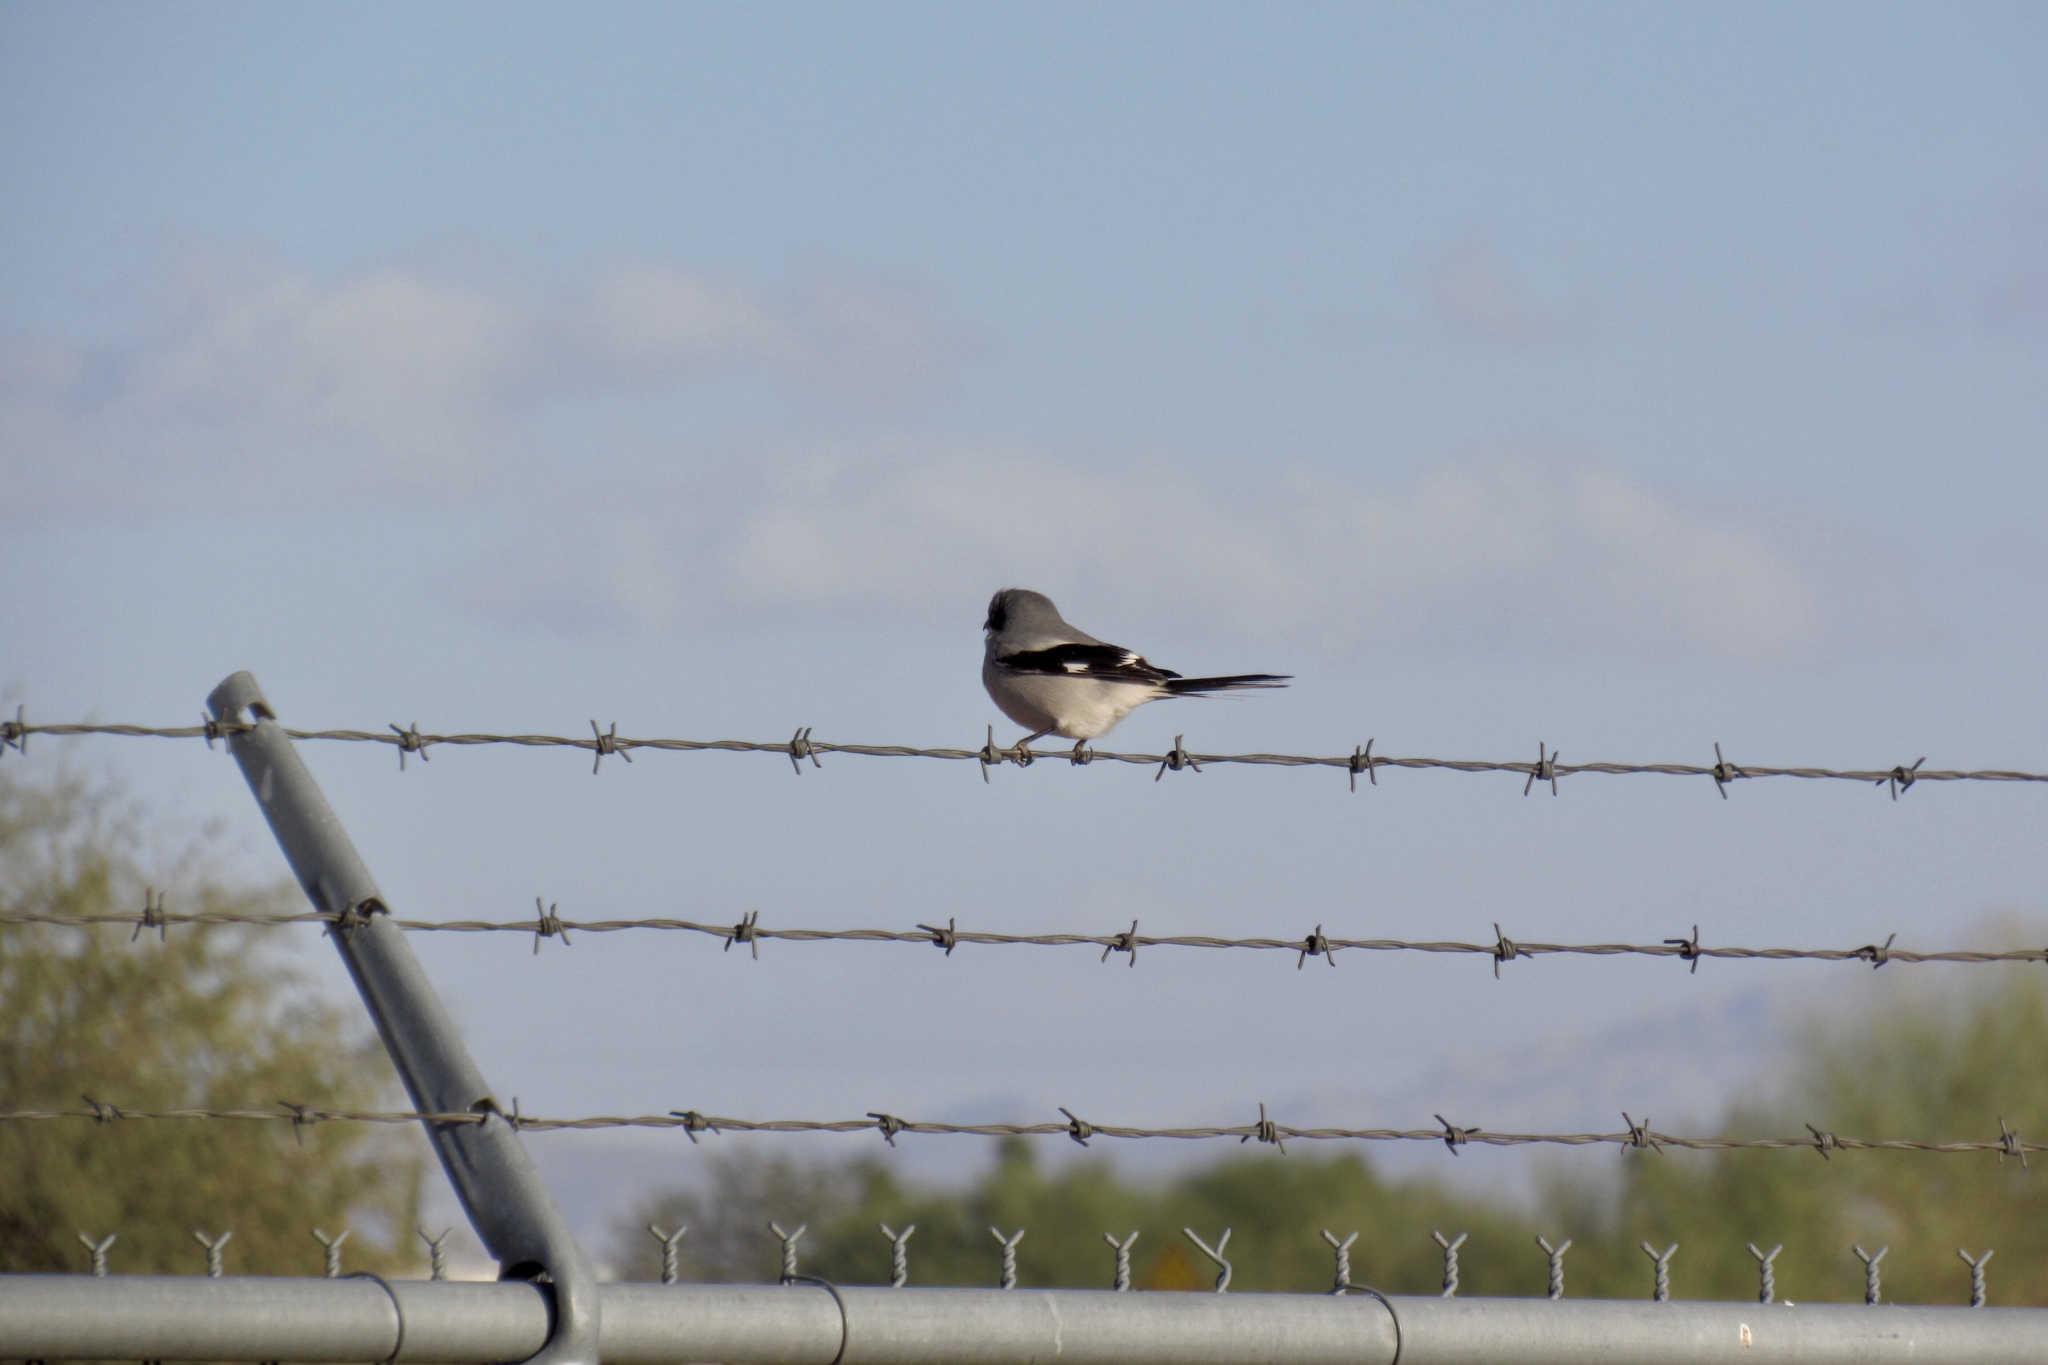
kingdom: Animalia
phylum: Chordata
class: Aves
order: Passeriformes
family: Laniidae
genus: Lanius
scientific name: Lanius ludovicianus
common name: Loggerhead shrike
